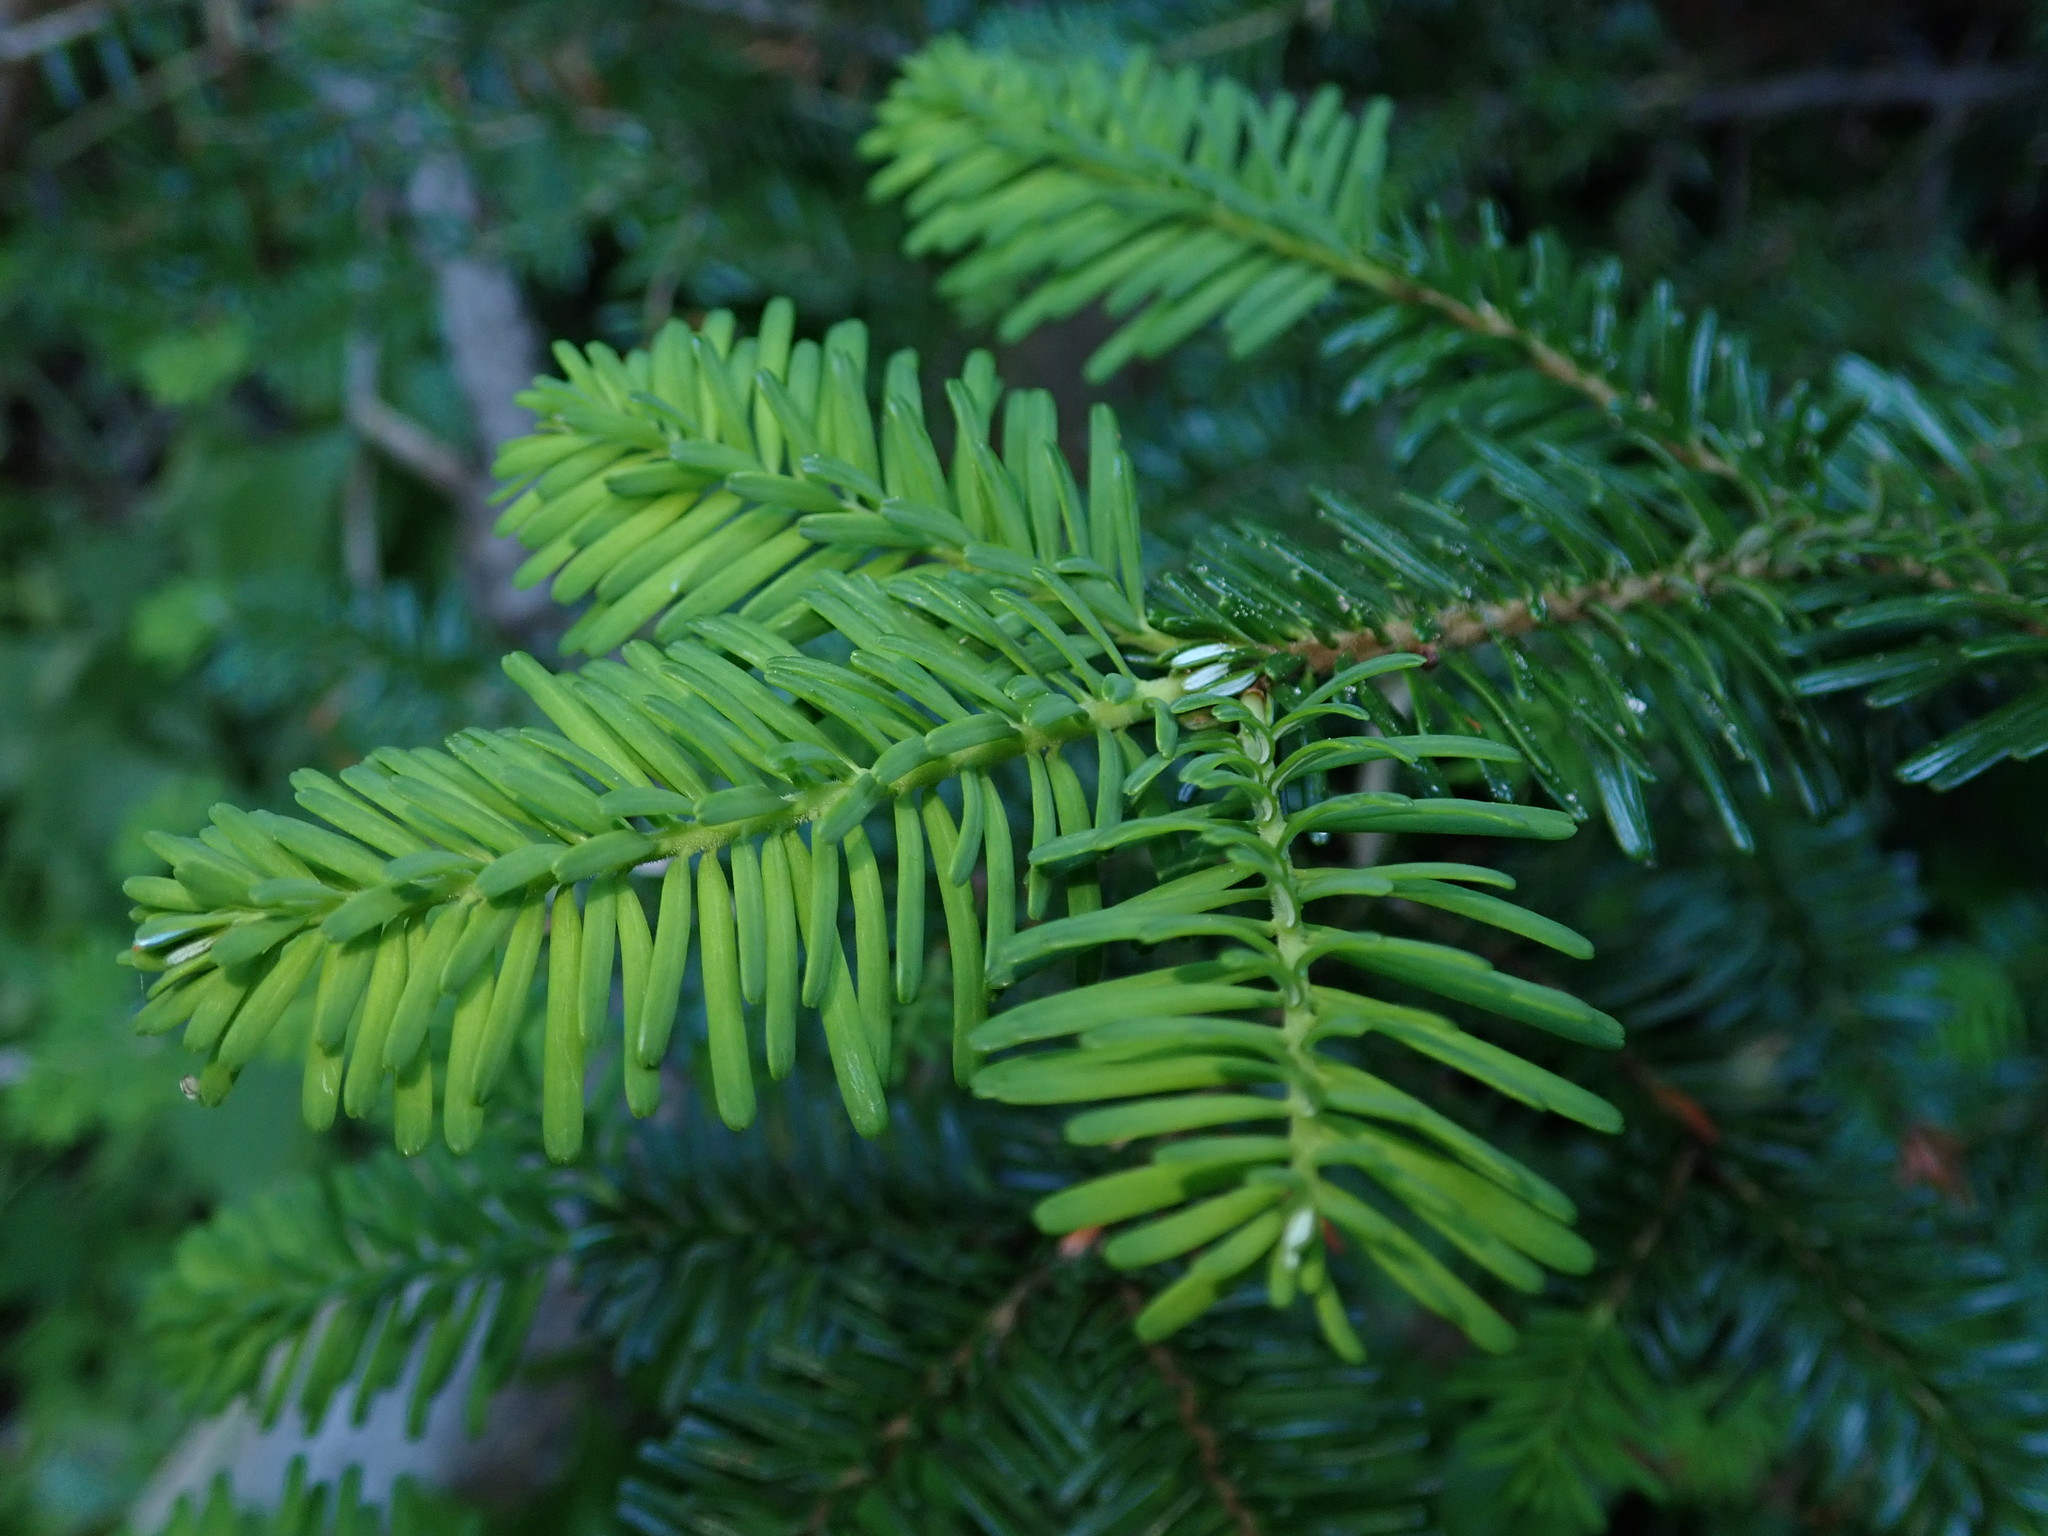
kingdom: Plantae
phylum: Tracheophyta
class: Pinopsida
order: Pinales
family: Pinaceae
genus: Abies
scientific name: Abies amabilis
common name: Pacific silver fir
